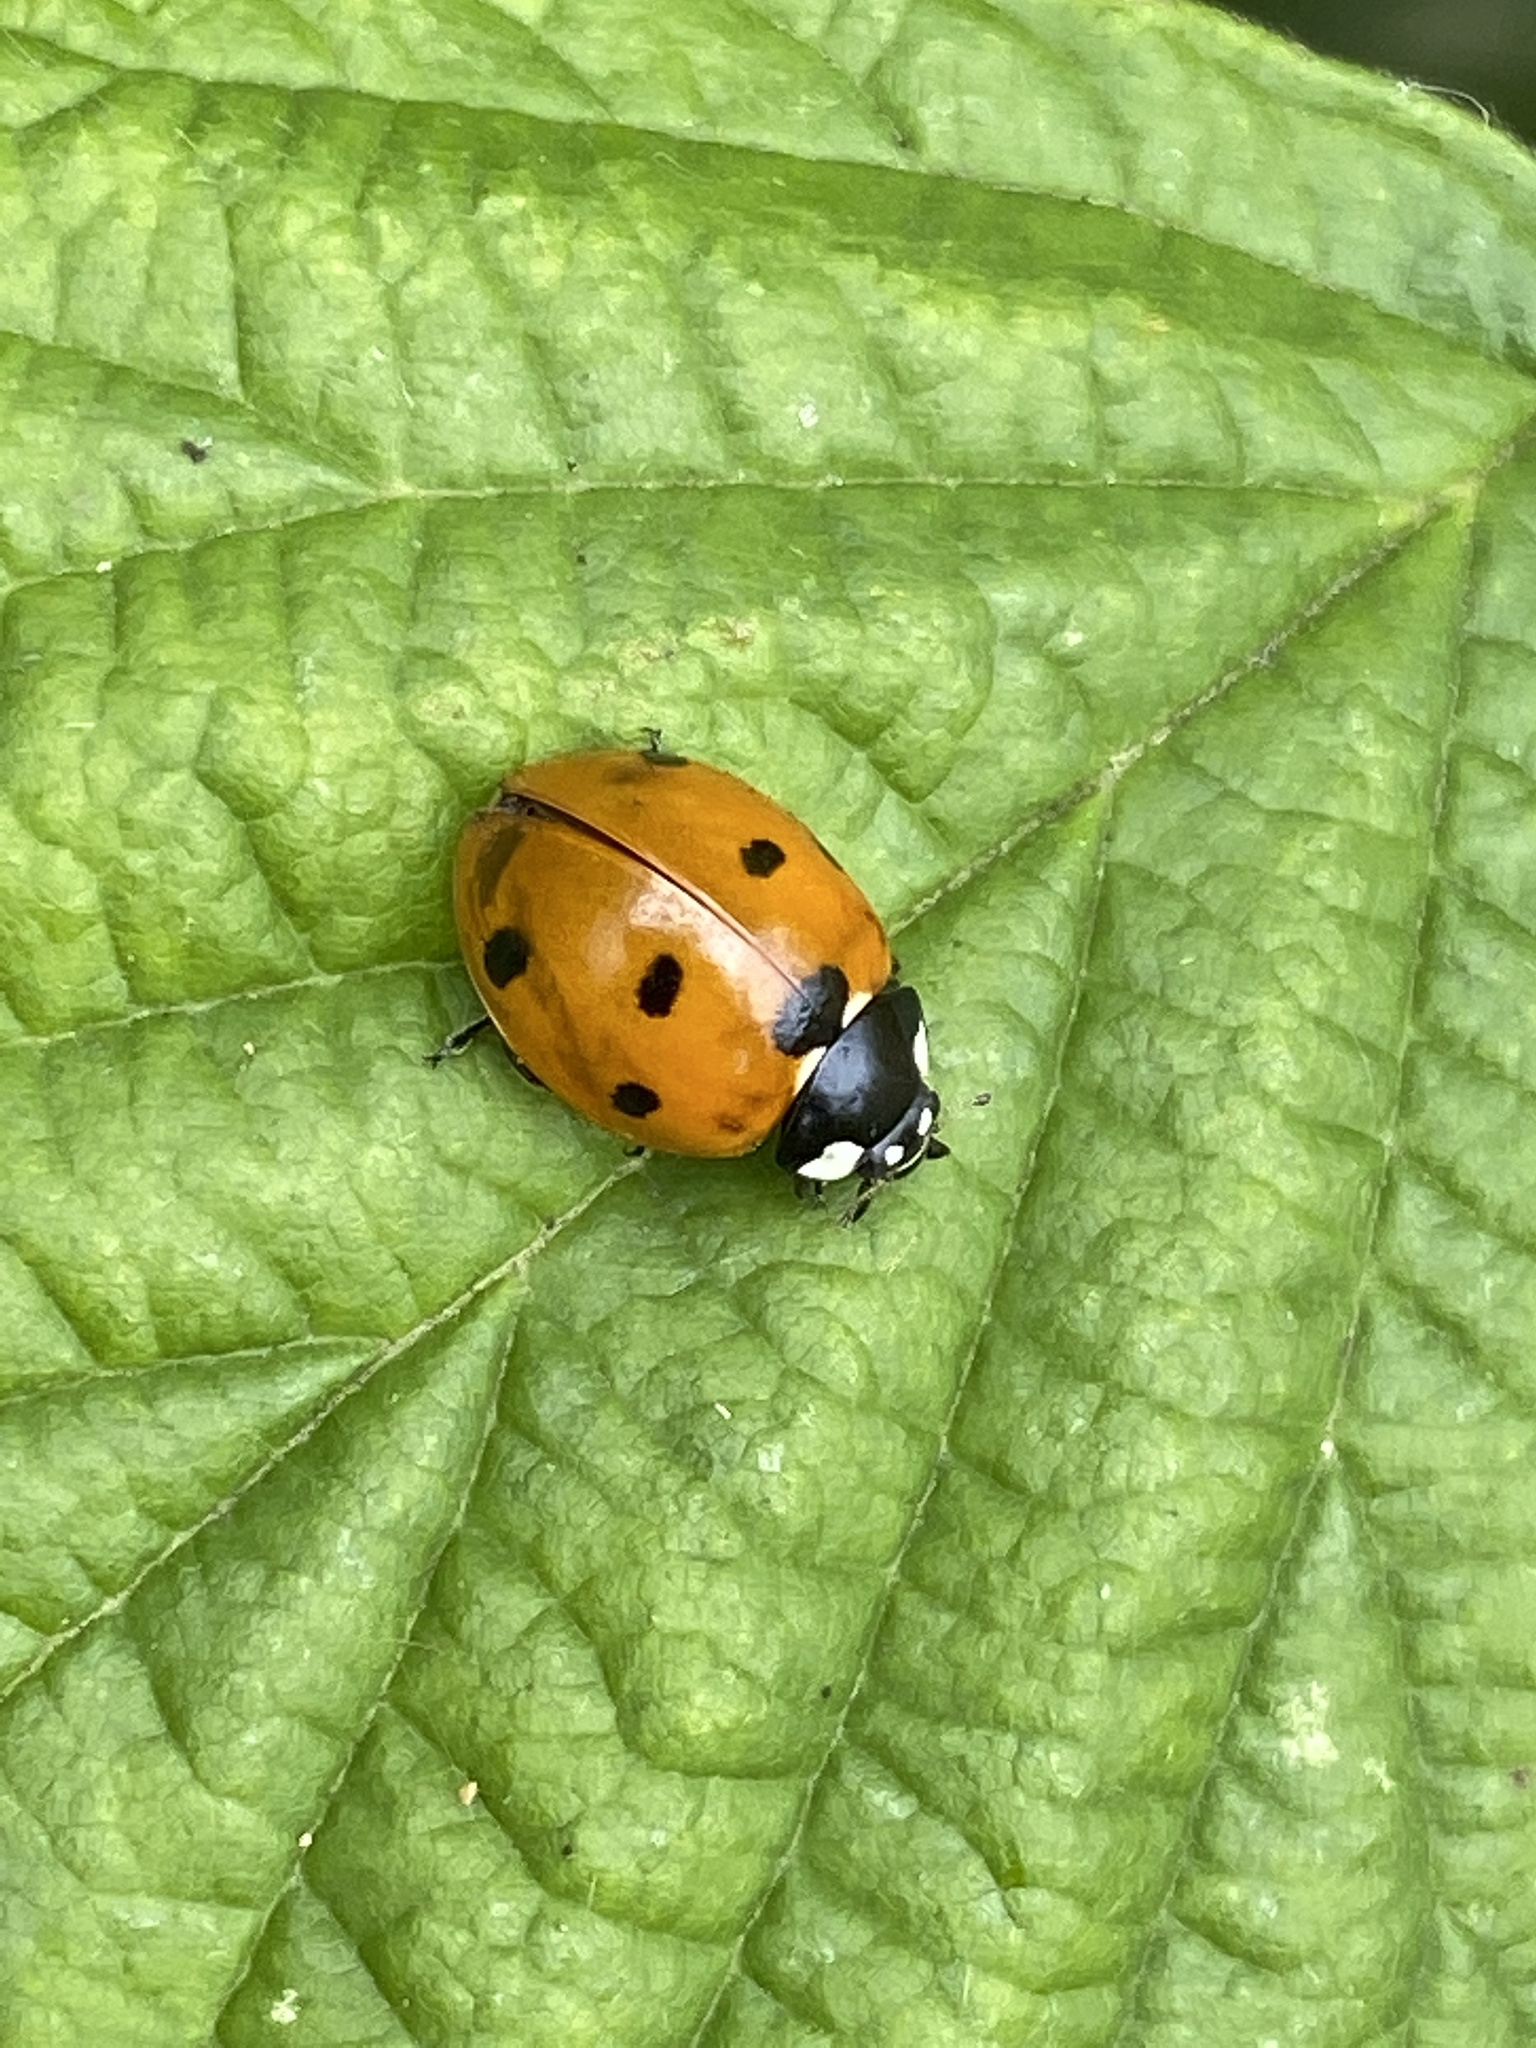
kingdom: Animalia
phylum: Arthropoda
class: Insecta
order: Coleoptera
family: Coccinellidae
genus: Coccinella
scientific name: Coccinella septempunctata
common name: Sevenspotted lady beetle
